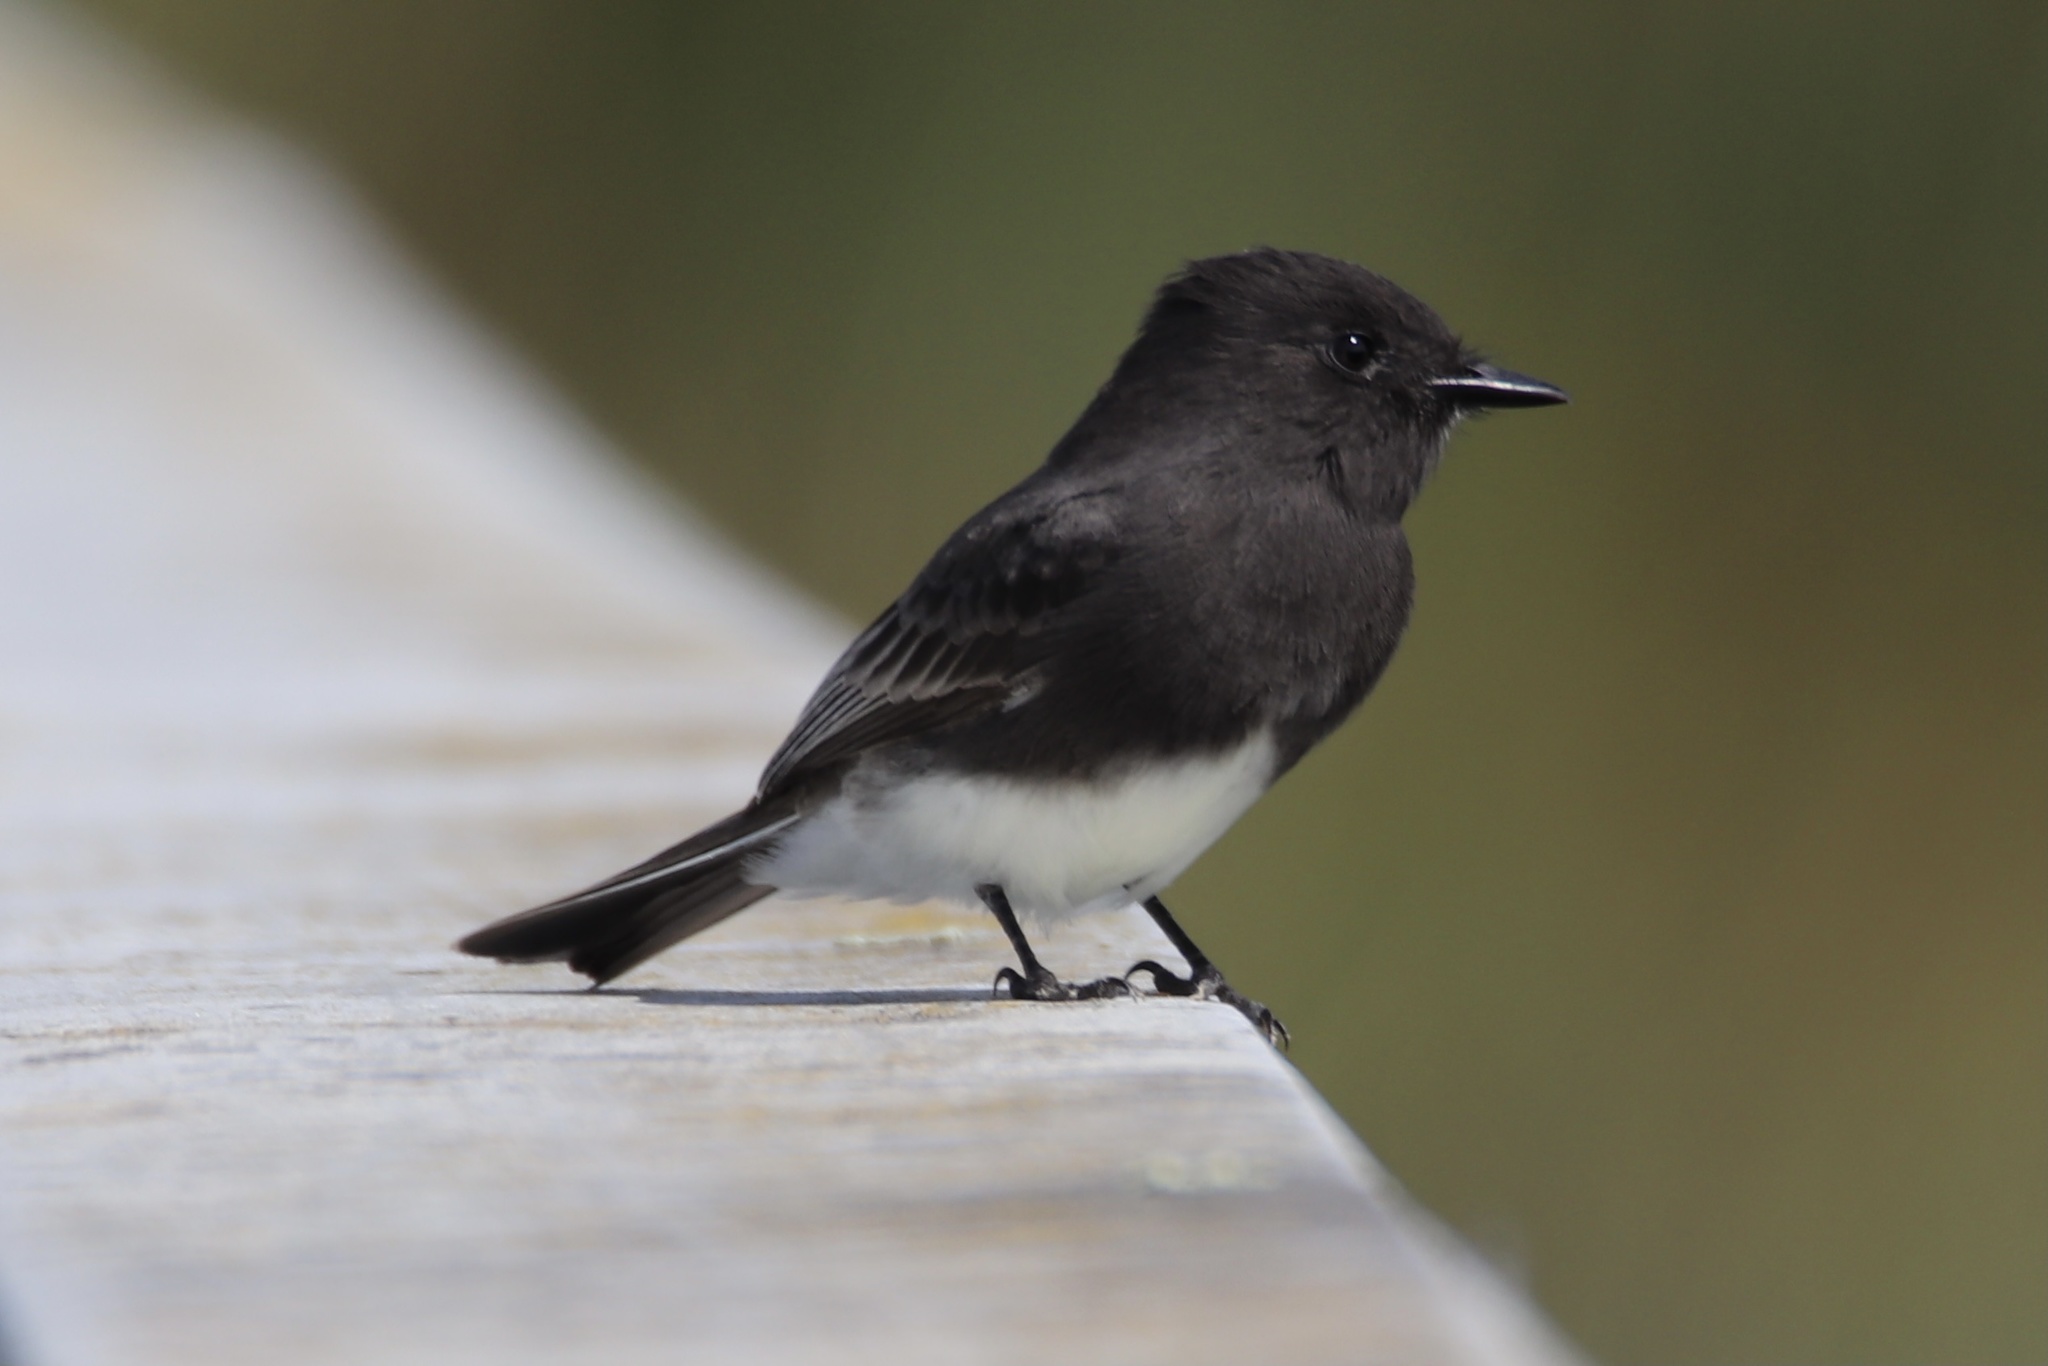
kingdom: Animalia
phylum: Chordata
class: Aves
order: Passeriformes
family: Tyrannidae
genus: Sayornis
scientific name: Sayornis nigricans
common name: Black phoebe
